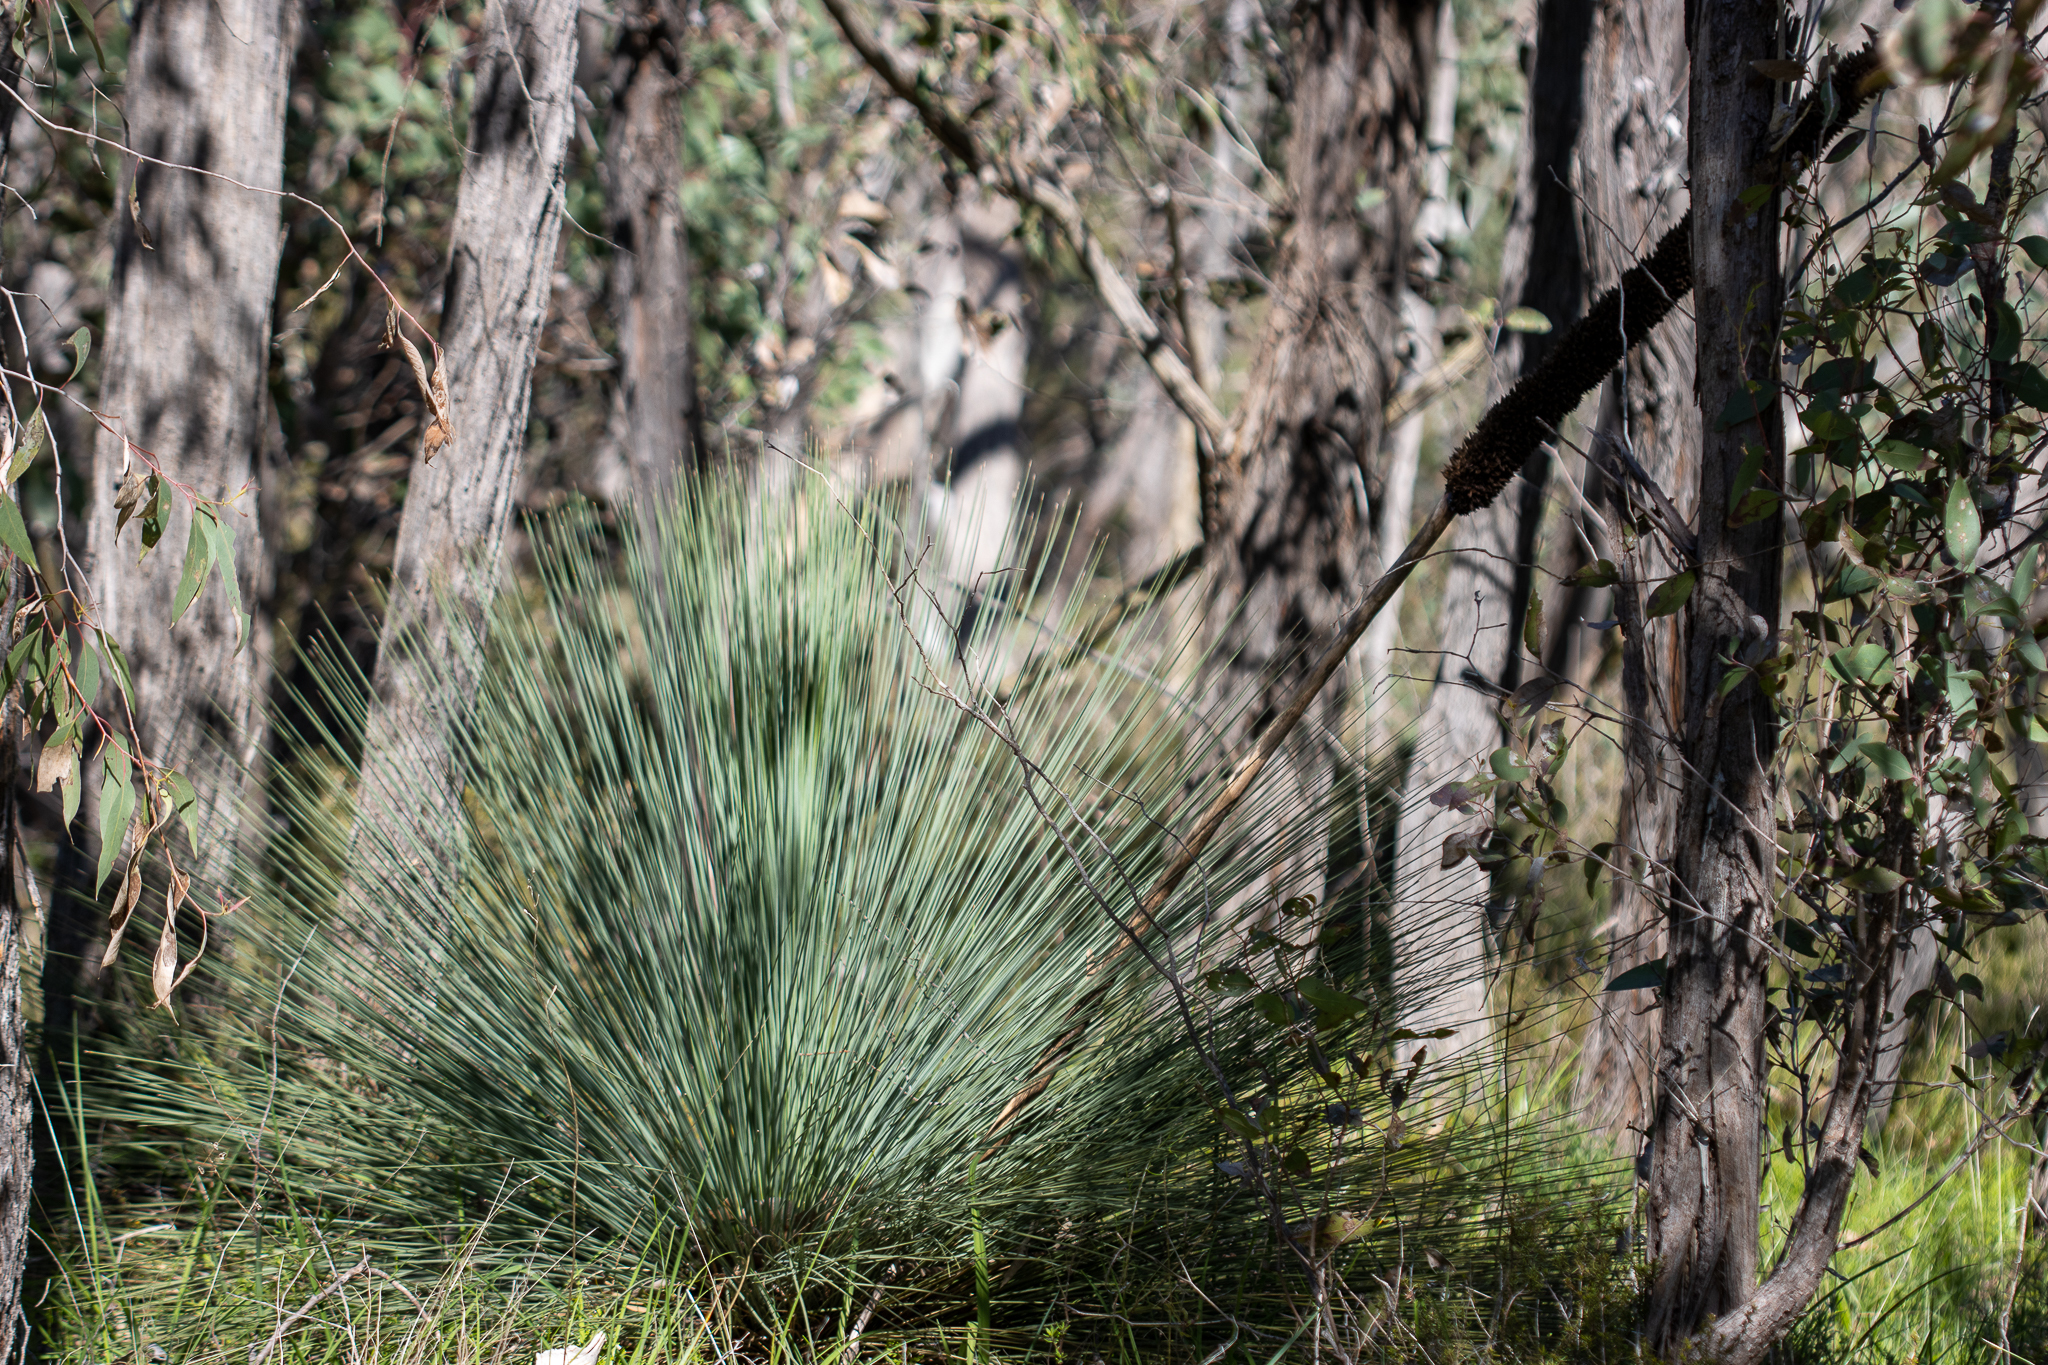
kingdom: Plantae
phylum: Tracheophyta
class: Liliopsida
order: Asparagales
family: Asphodelaceae
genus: Xanthorrhoea
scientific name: Xanthorrhoea quadrangulata
